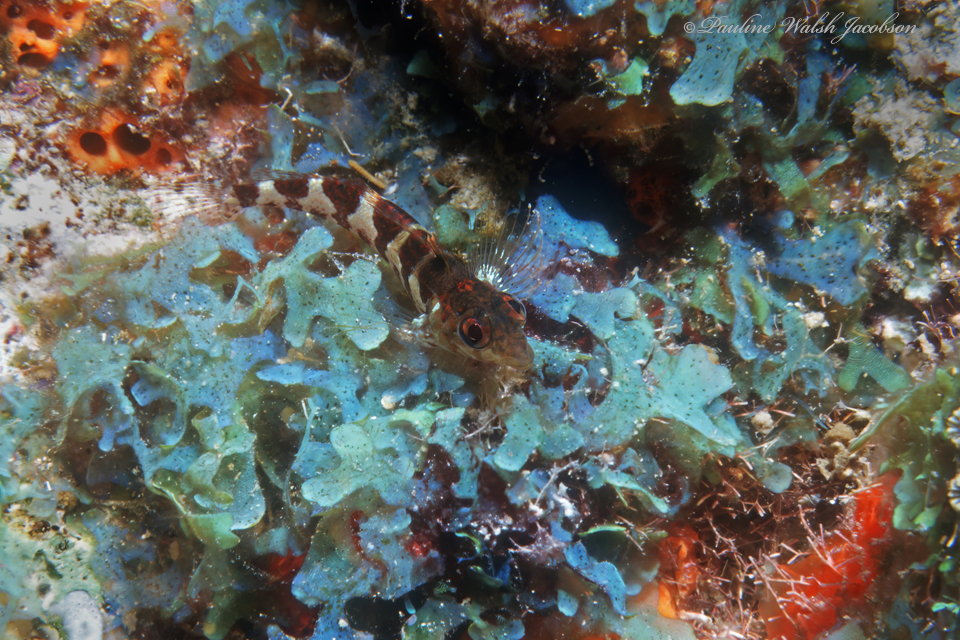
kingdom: Animalia
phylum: Chordata
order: Perciformes
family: Labrisomidae
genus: Malacoctenus
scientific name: Malacoctenus triangulatus
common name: Saddled blenny
